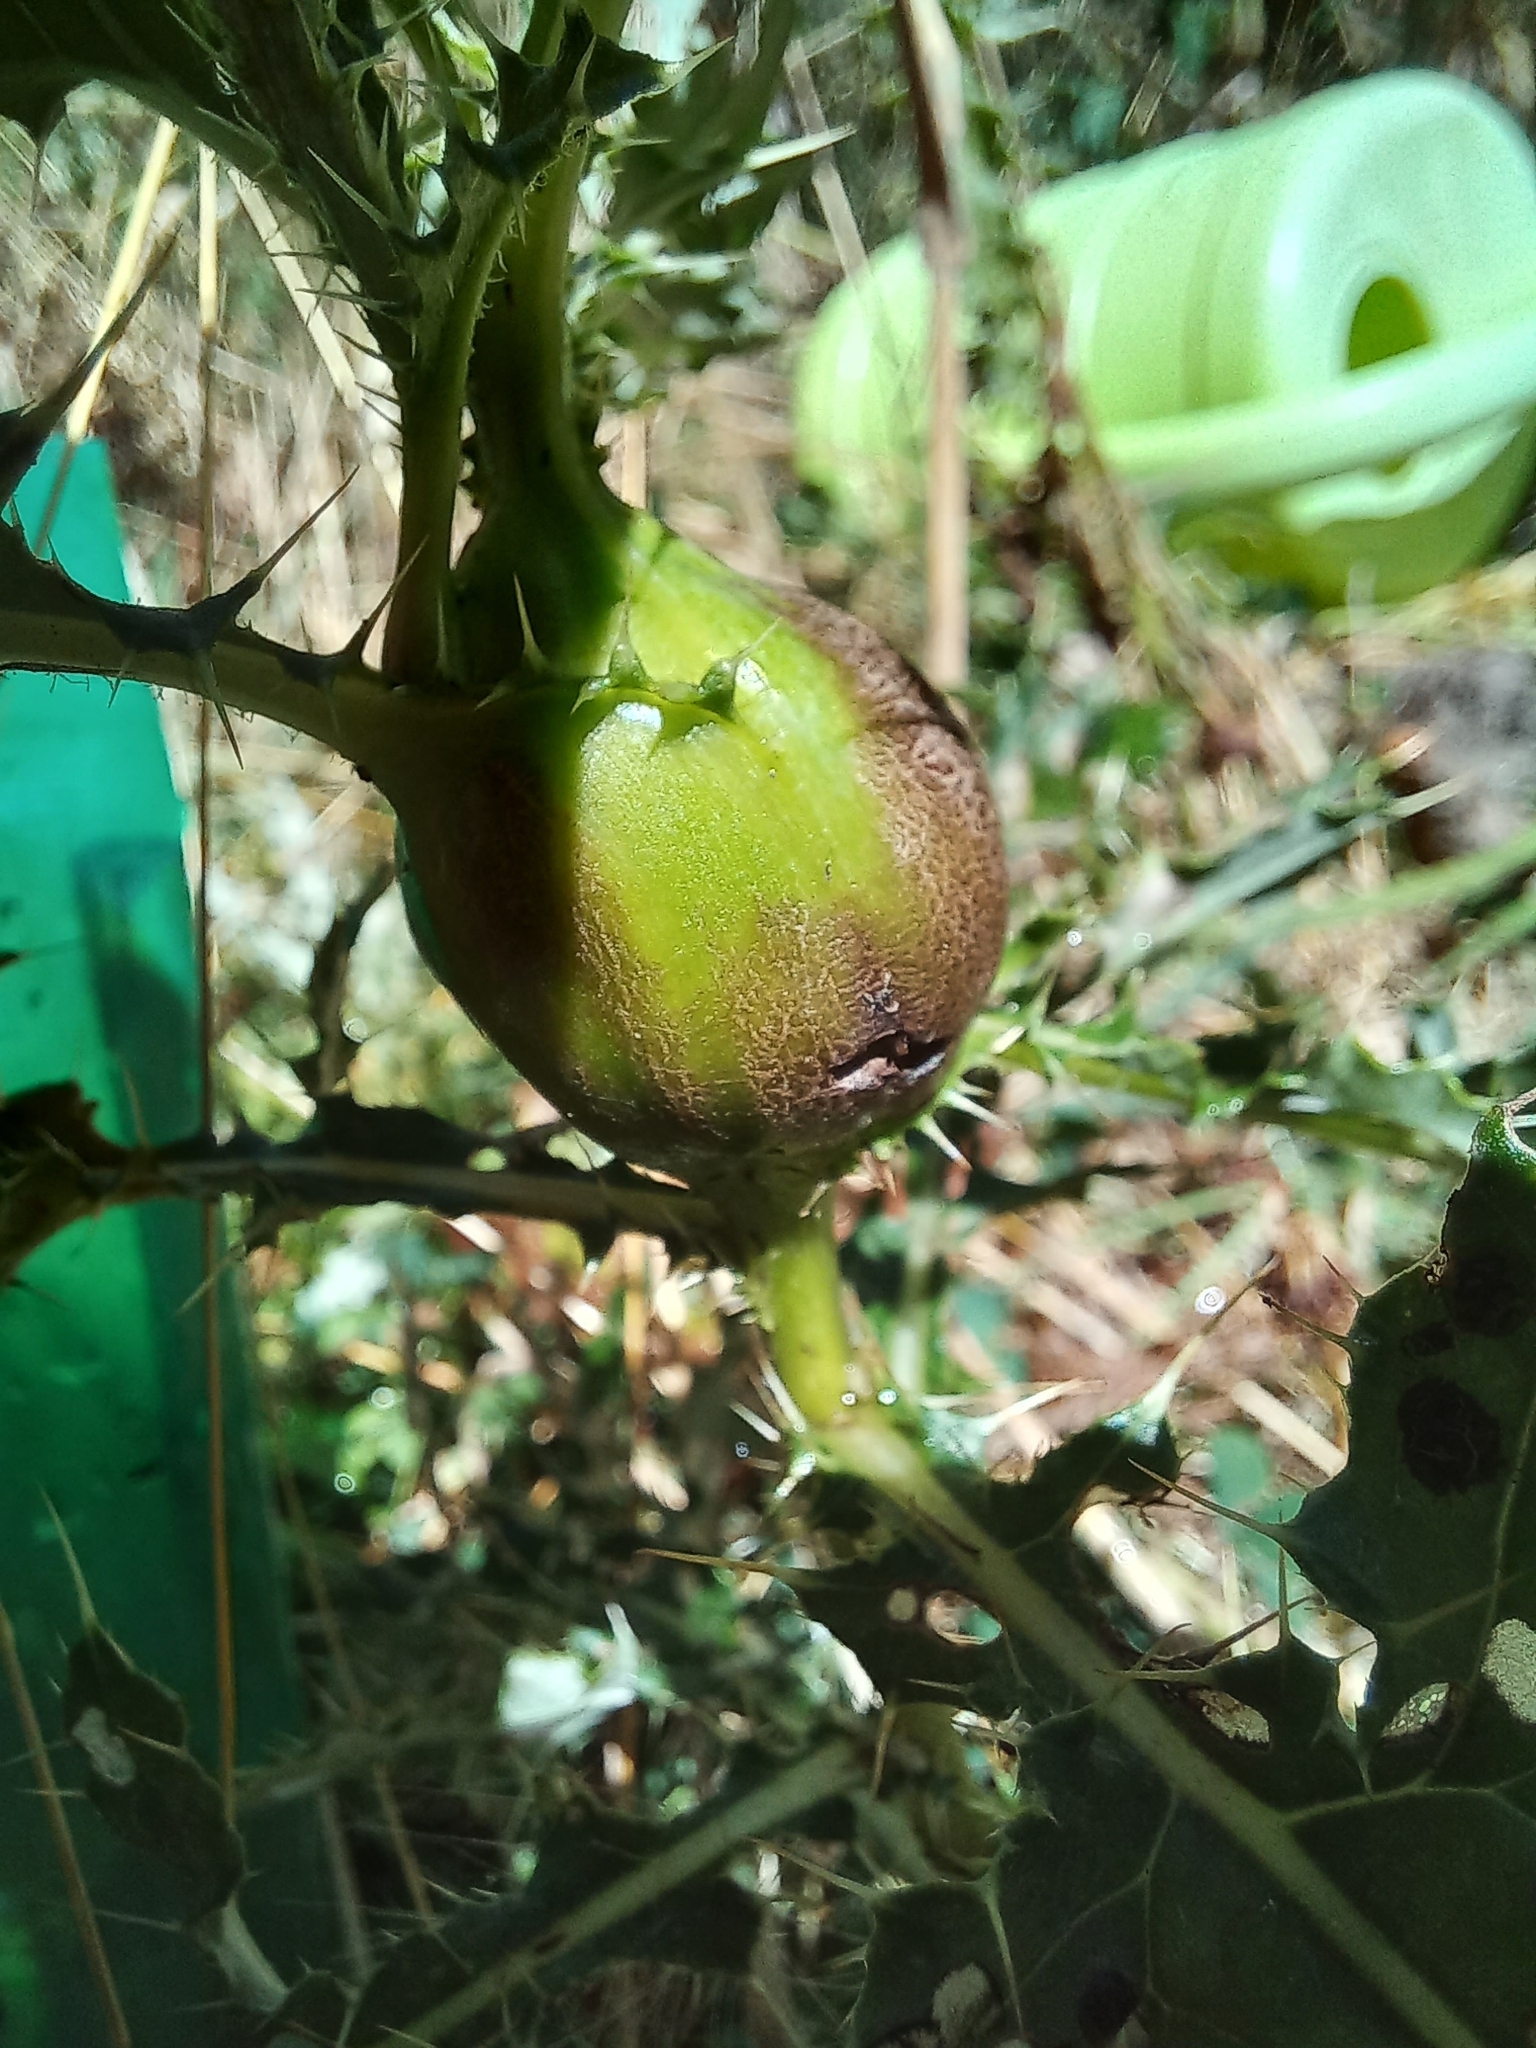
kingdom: Animalia
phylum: Arthropoda
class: Insecta
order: Diptera
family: Tephritidae
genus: Urophora
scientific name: Urophora cardui
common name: Fruit fly
